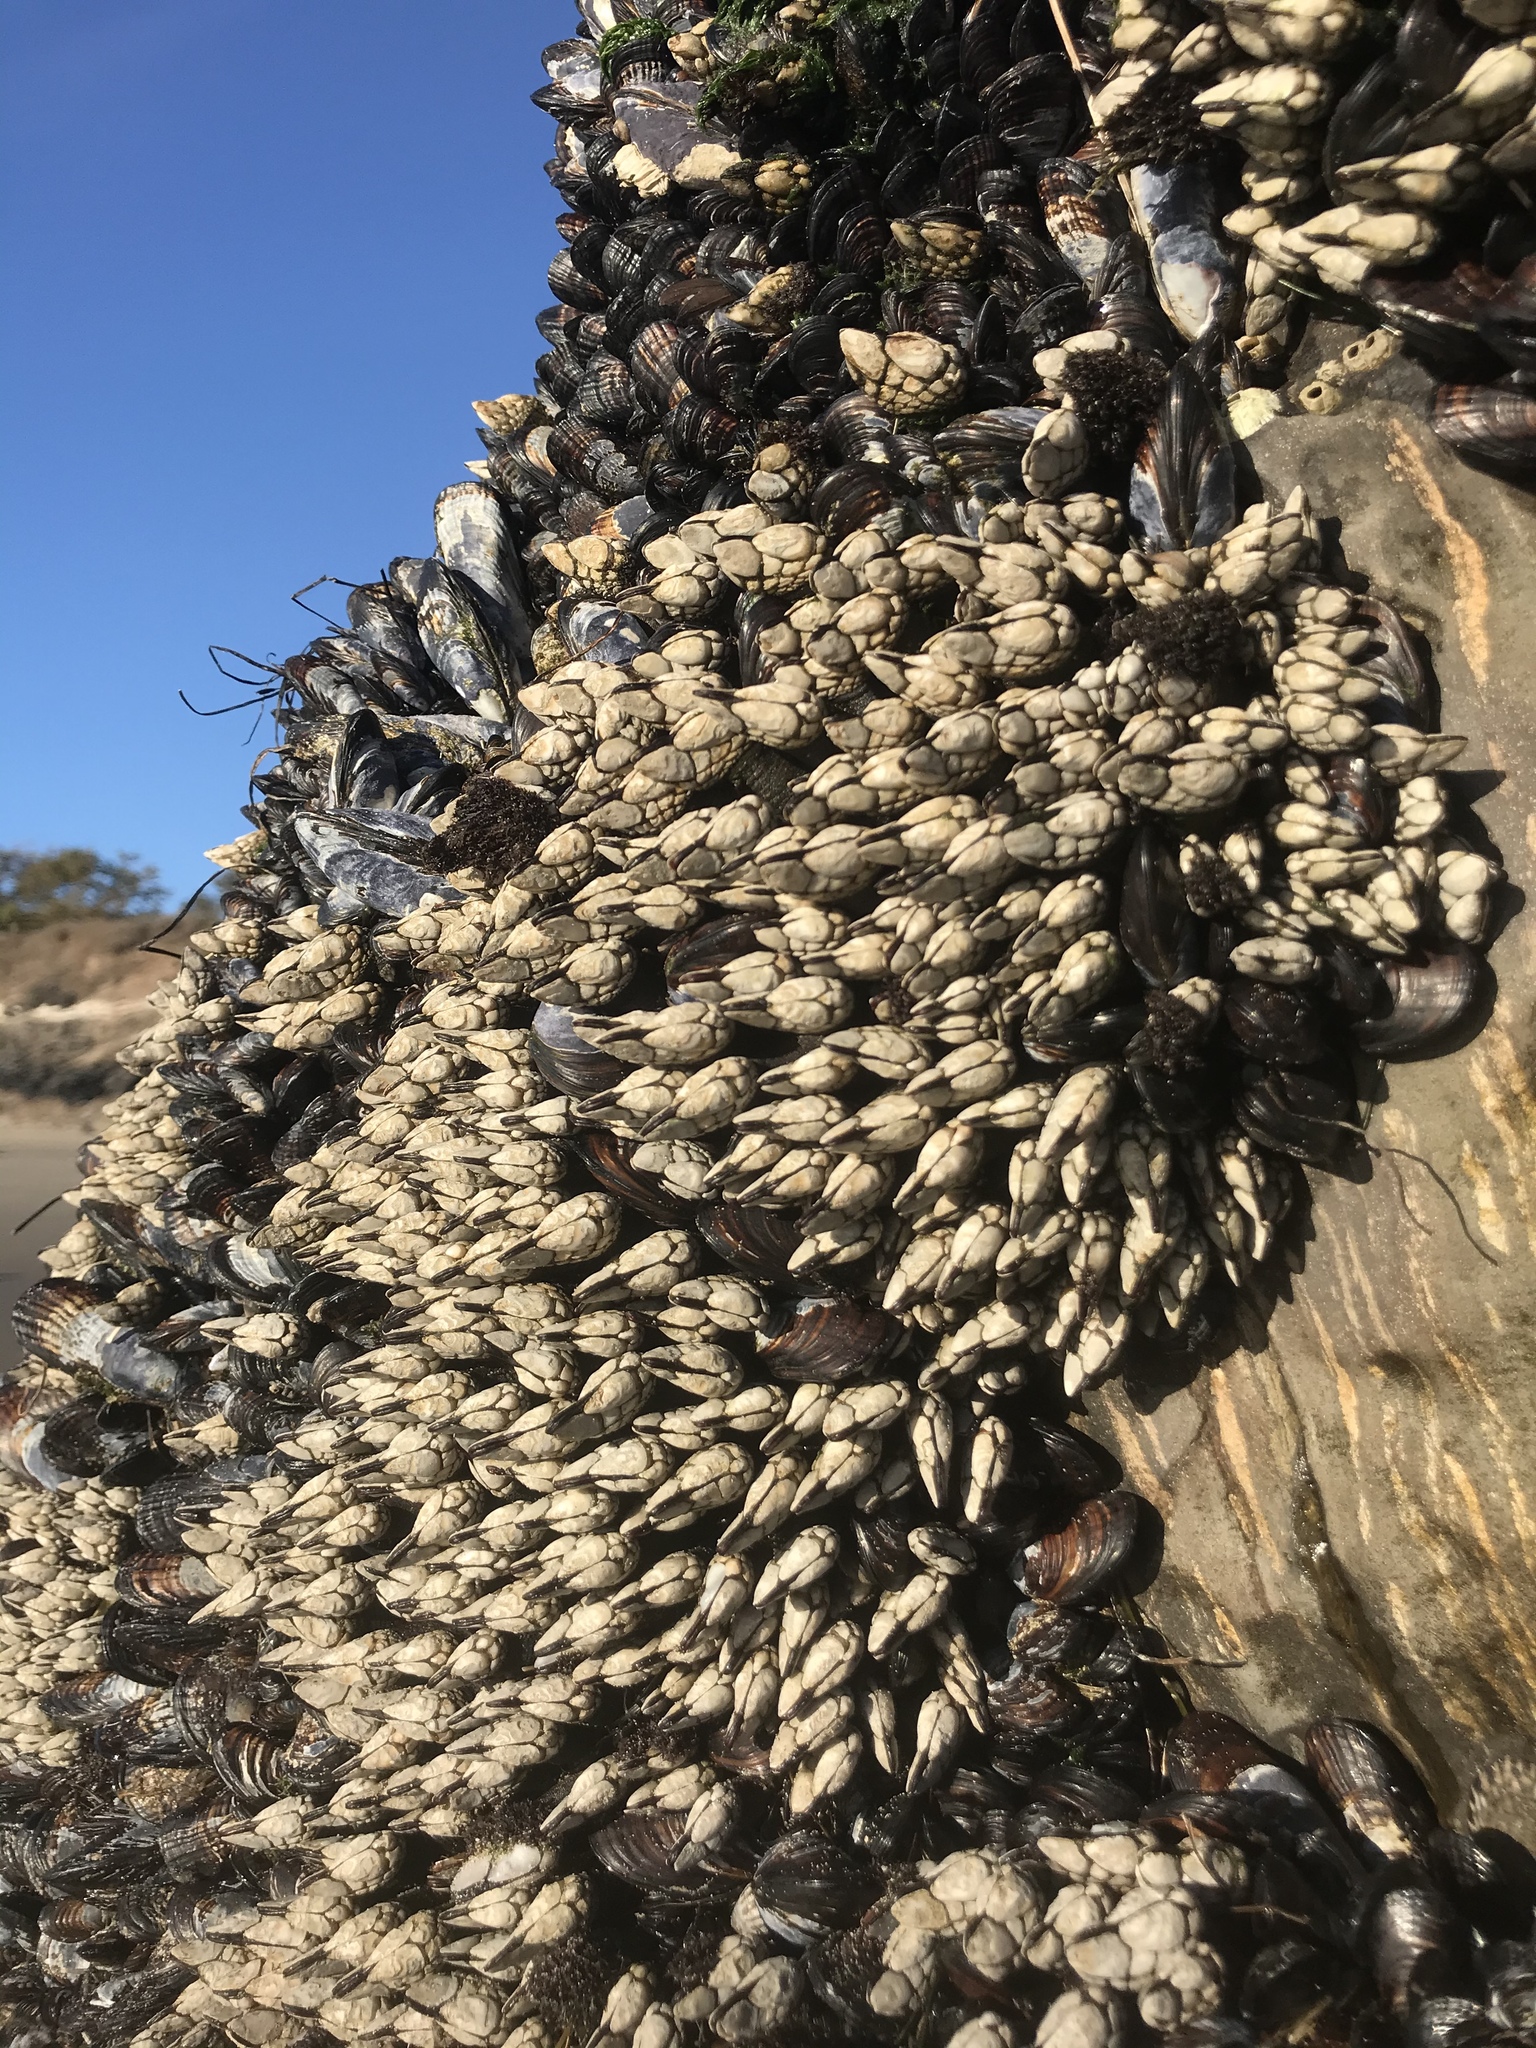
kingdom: Animalia
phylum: Arthropoda
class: Maxillopoda
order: Pedunculata
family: Pollicipedidae
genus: Pollicipes
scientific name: Pollicipes polymerus
